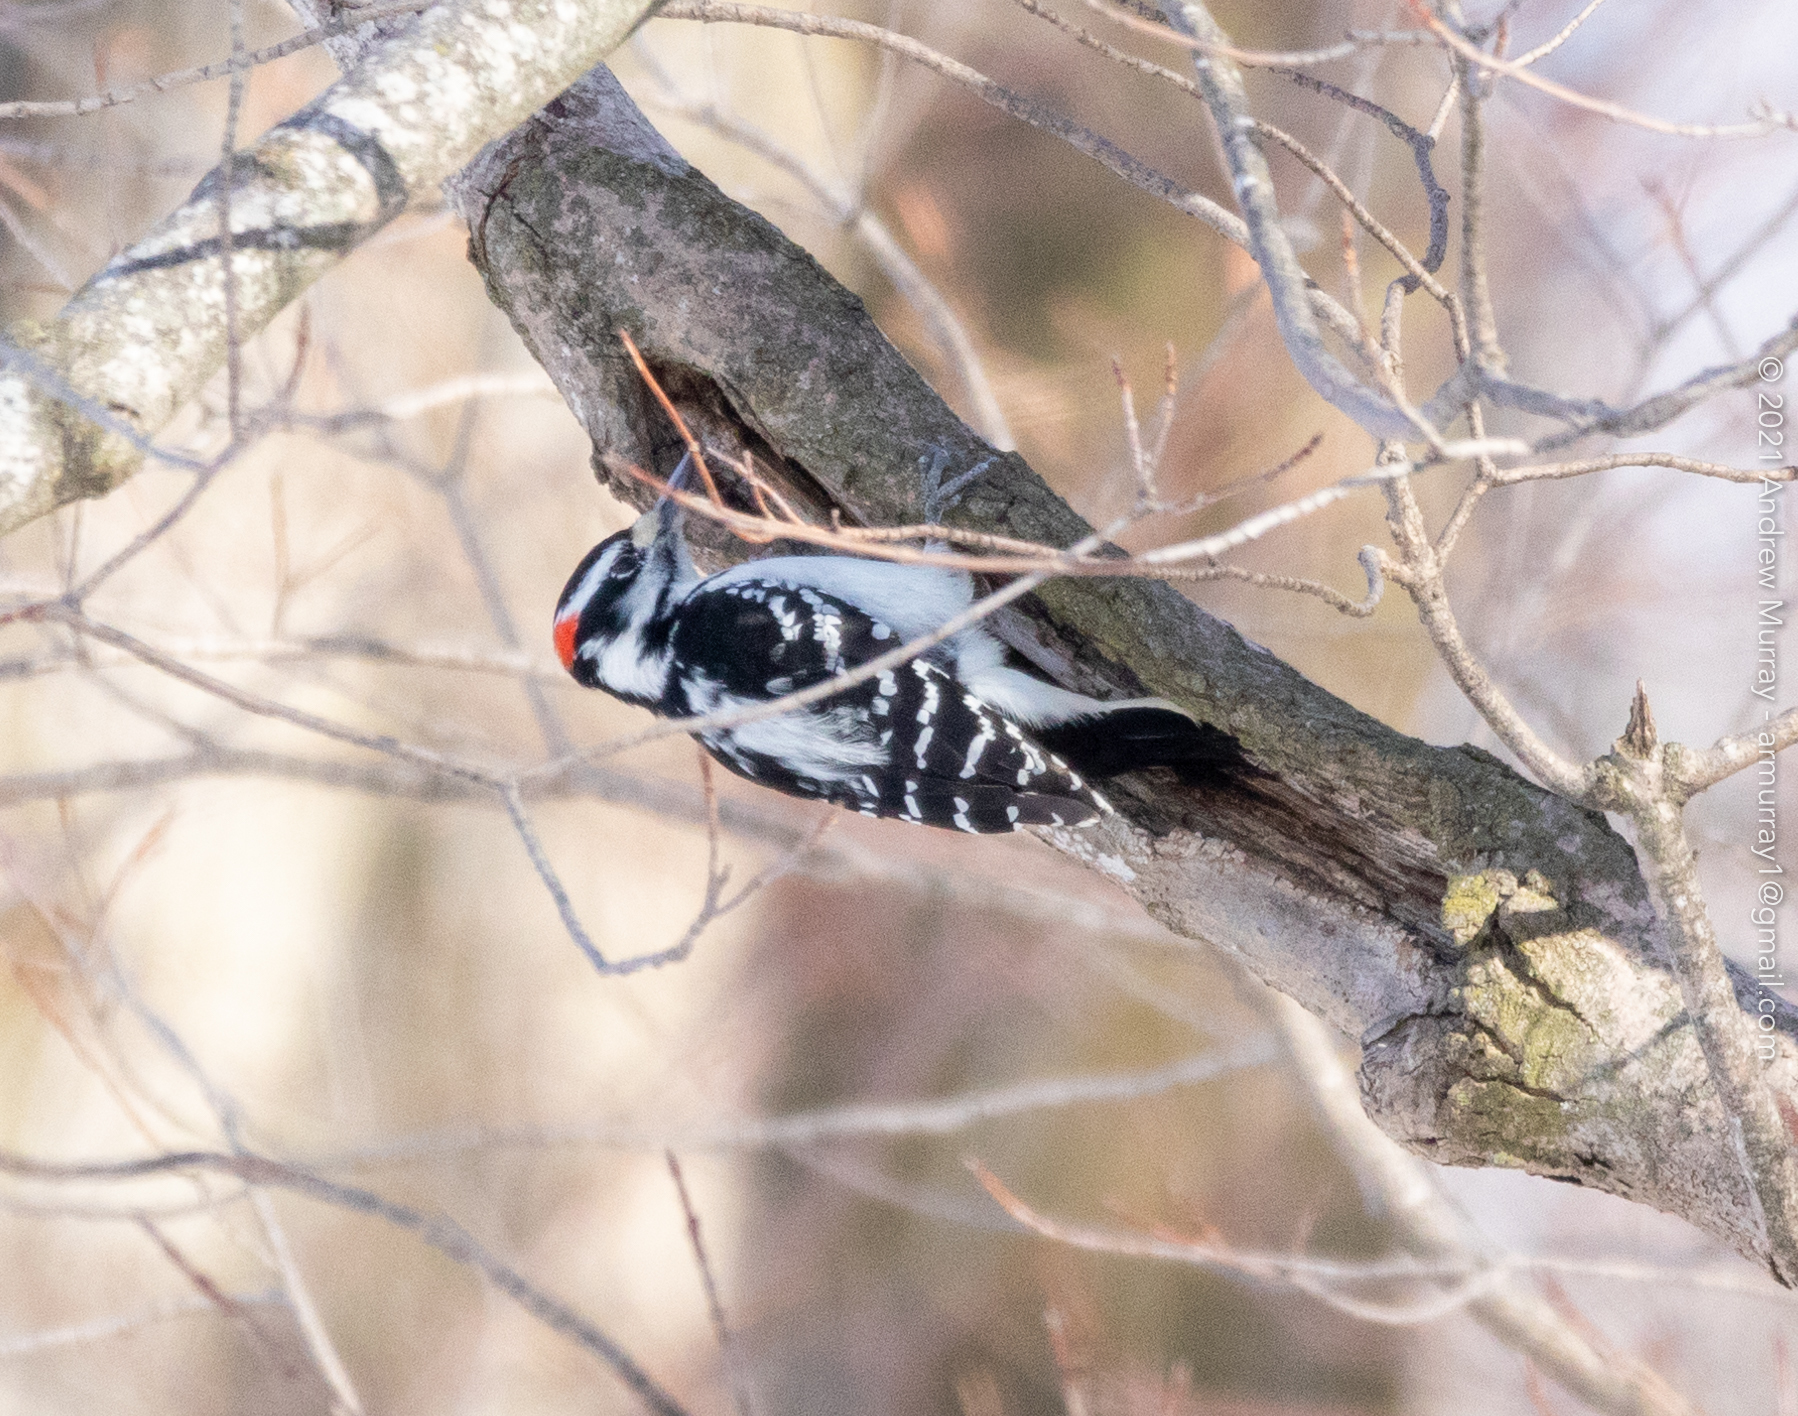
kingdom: Animalia
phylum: Chordata
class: Aves
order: Piciformes
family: Picidae
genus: Dryobates
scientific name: Dryobates pubescens
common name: Downy woodpecker
